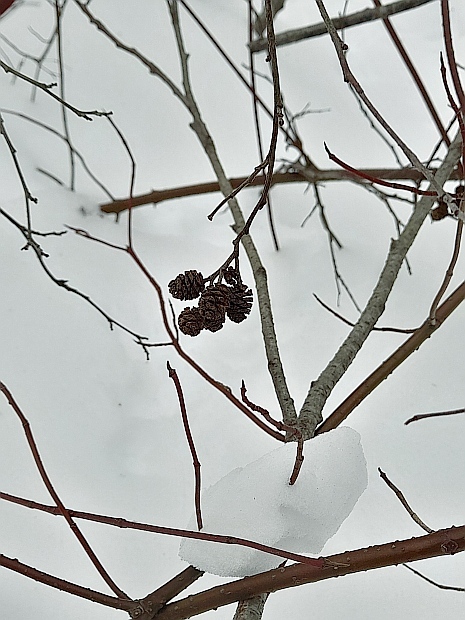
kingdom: Plantae
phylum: Tracheophyta
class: Magnoliopsida
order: Fagales
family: Betulaceae
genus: Alnus
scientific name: Alnus incana
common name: Grey alder
